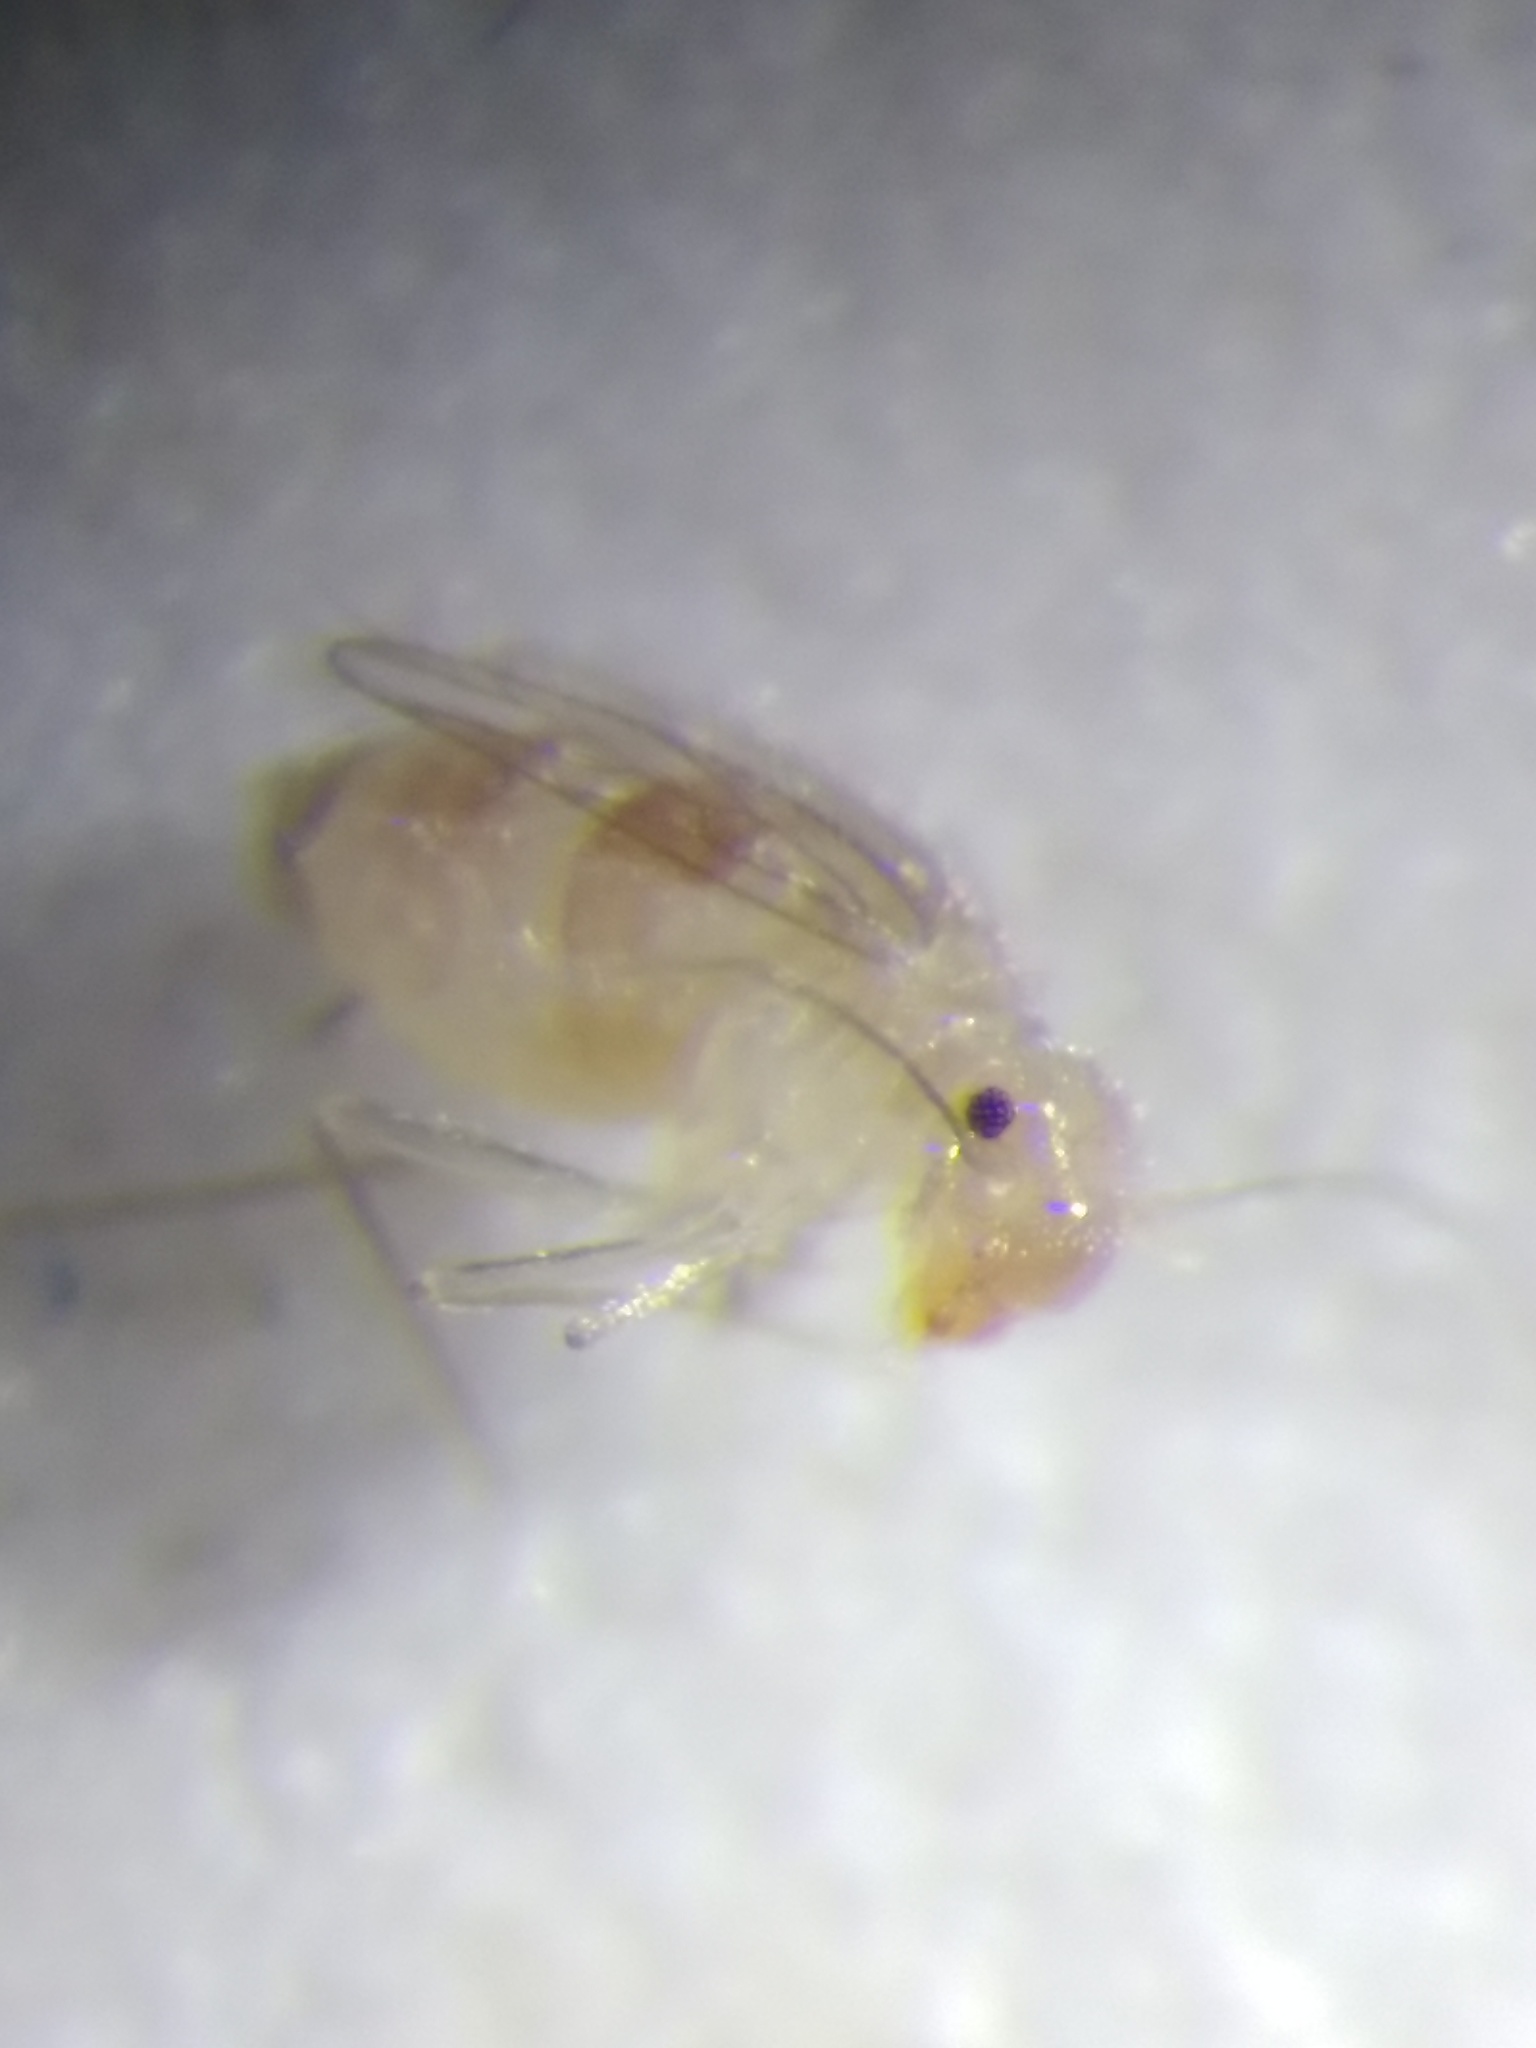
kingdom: Animalia
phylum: Arthropoda
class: Insecta
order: Psocodea
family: Psyllipsocidae
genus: Dorypteryx
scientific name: Dorypteryx domestica
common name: Cave barklouse
